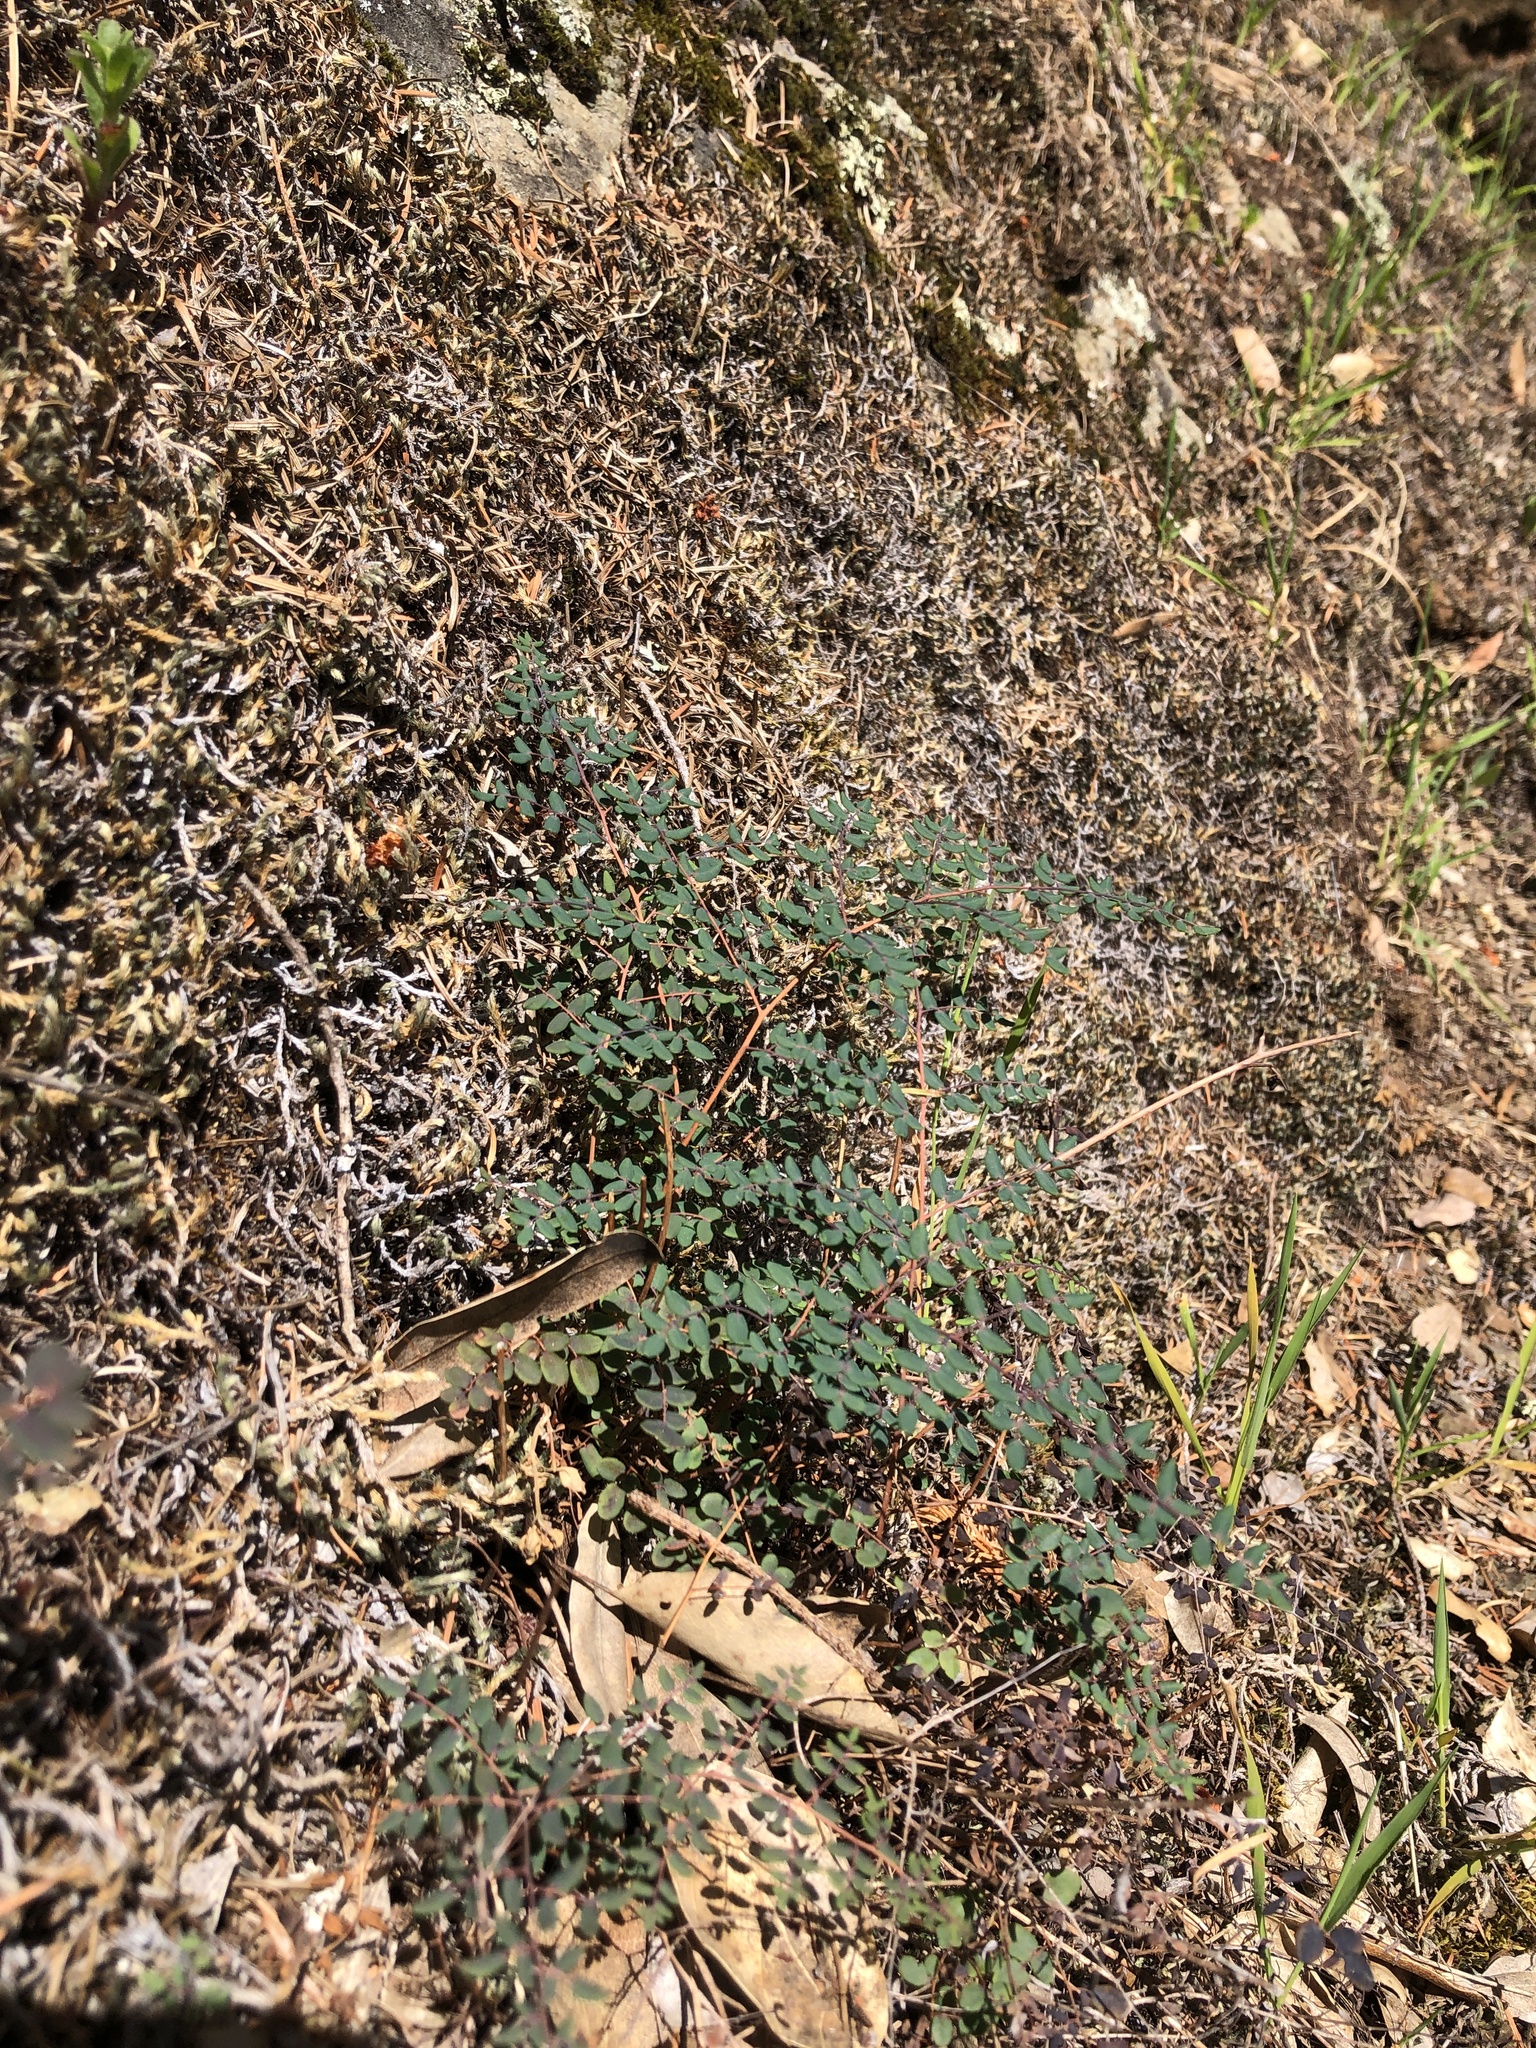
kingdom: Plantae
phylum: Tracheophyta
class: Polypodiopsida
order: Polypodiales
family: Pteridaceae
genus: Pellaea
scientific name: Pellaea andromedifolia
